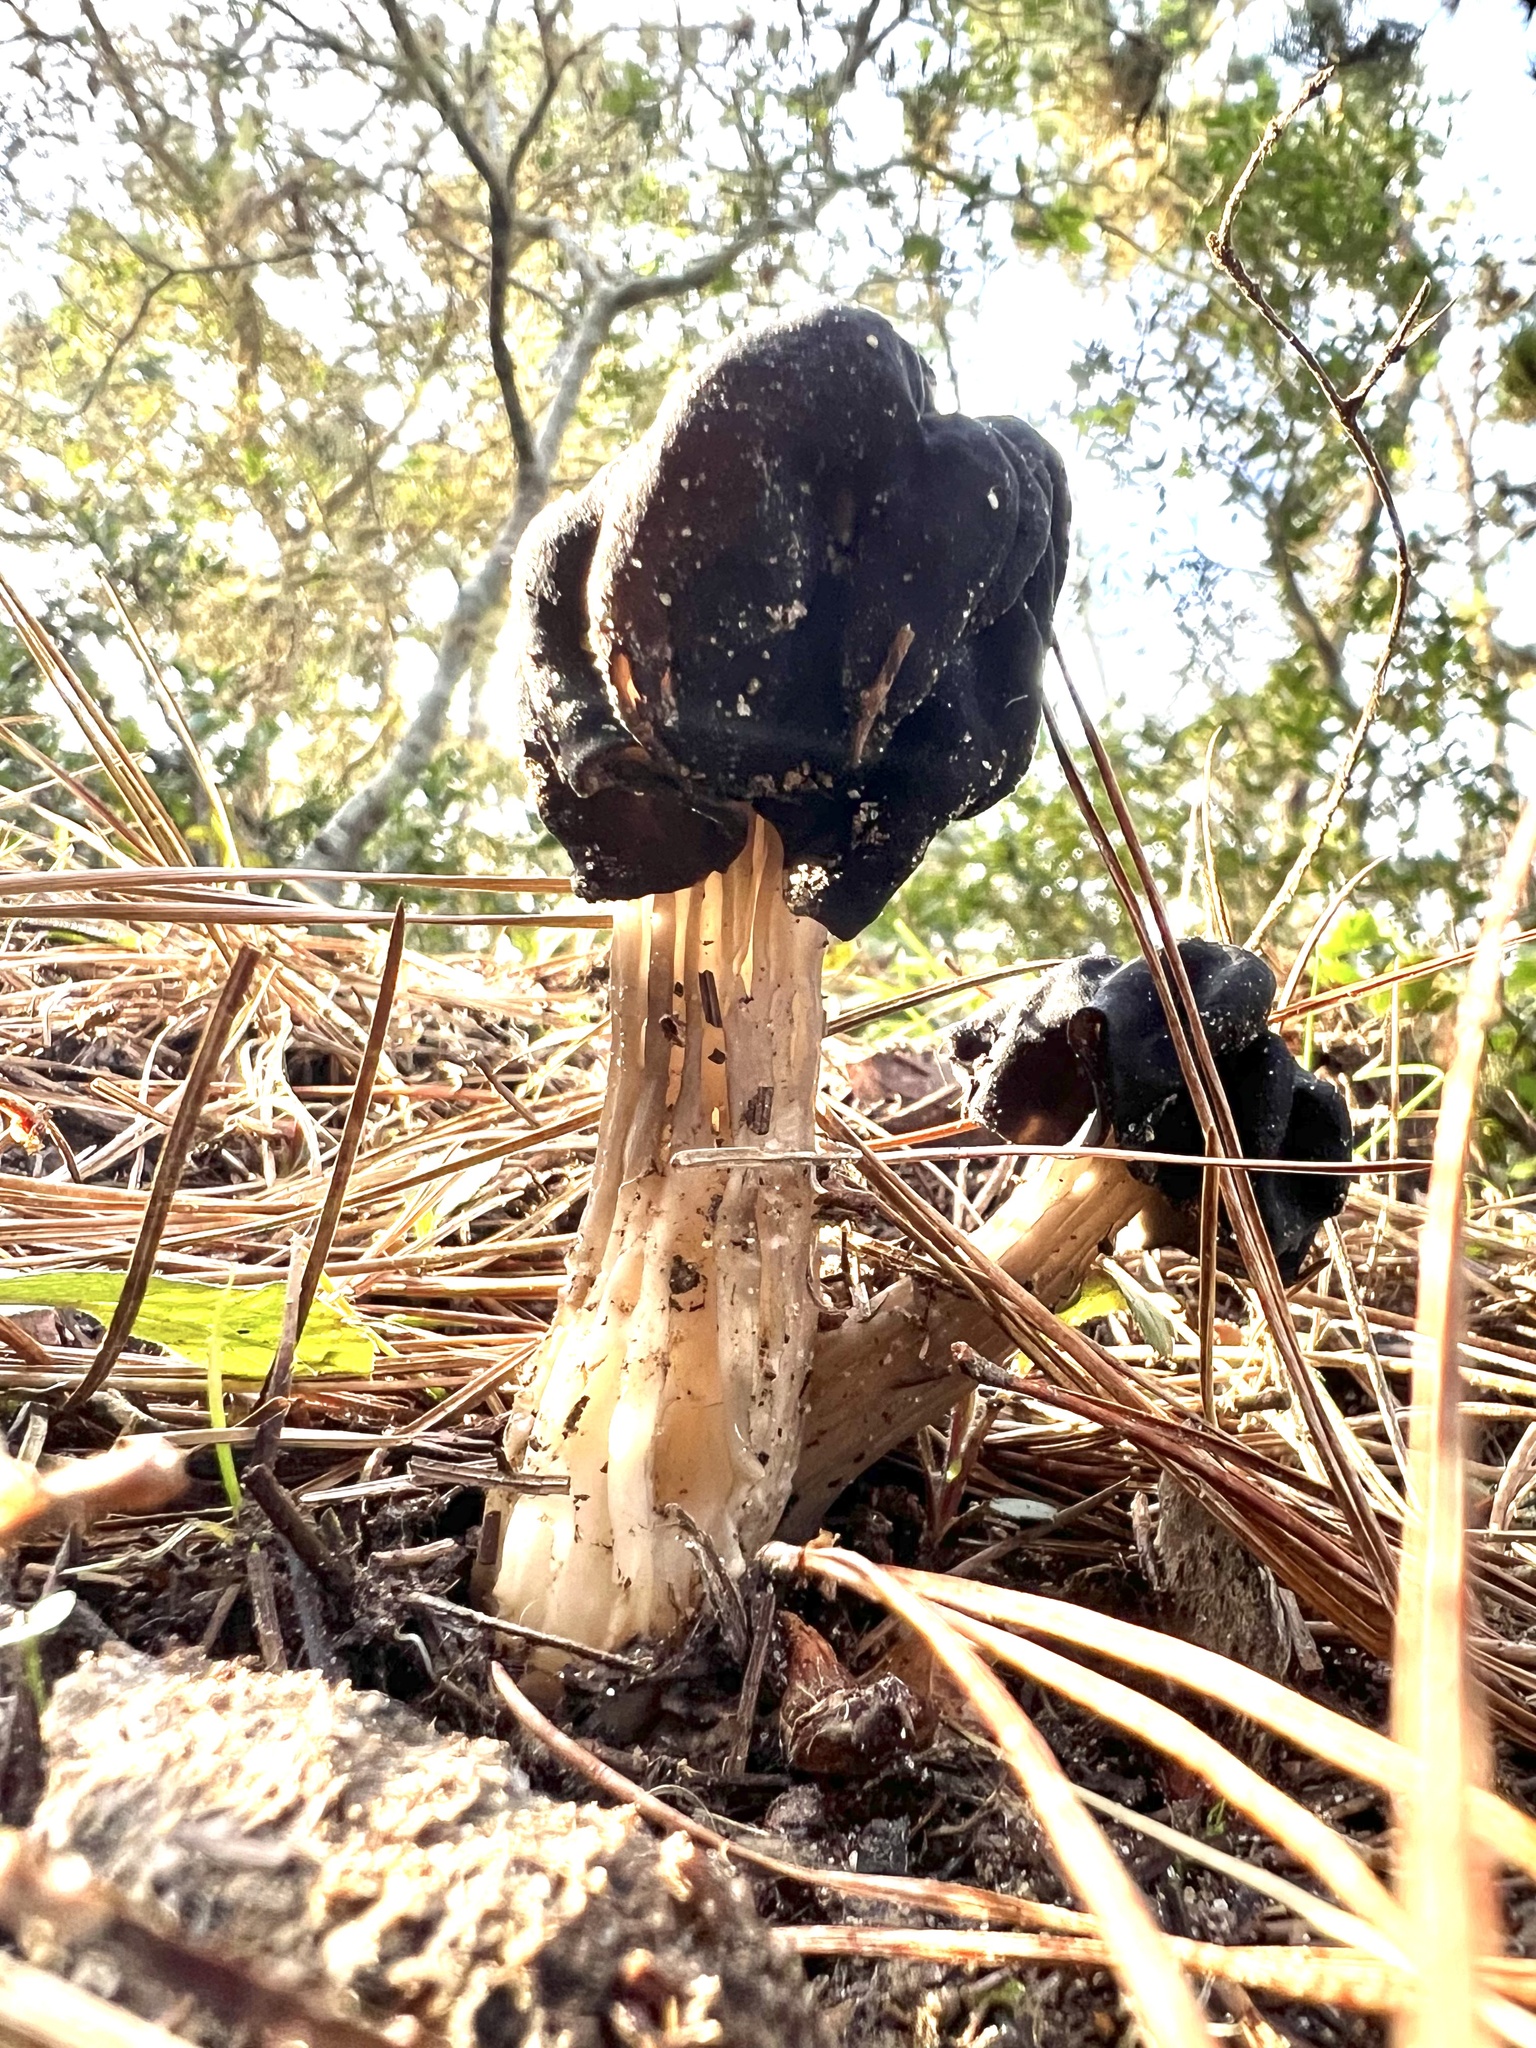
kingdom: Fungi
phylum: Ascomycota
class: Pezizomycetes
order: Pezizales
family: Helvellaceae
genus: Helvella
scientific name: Helvella vespertina
